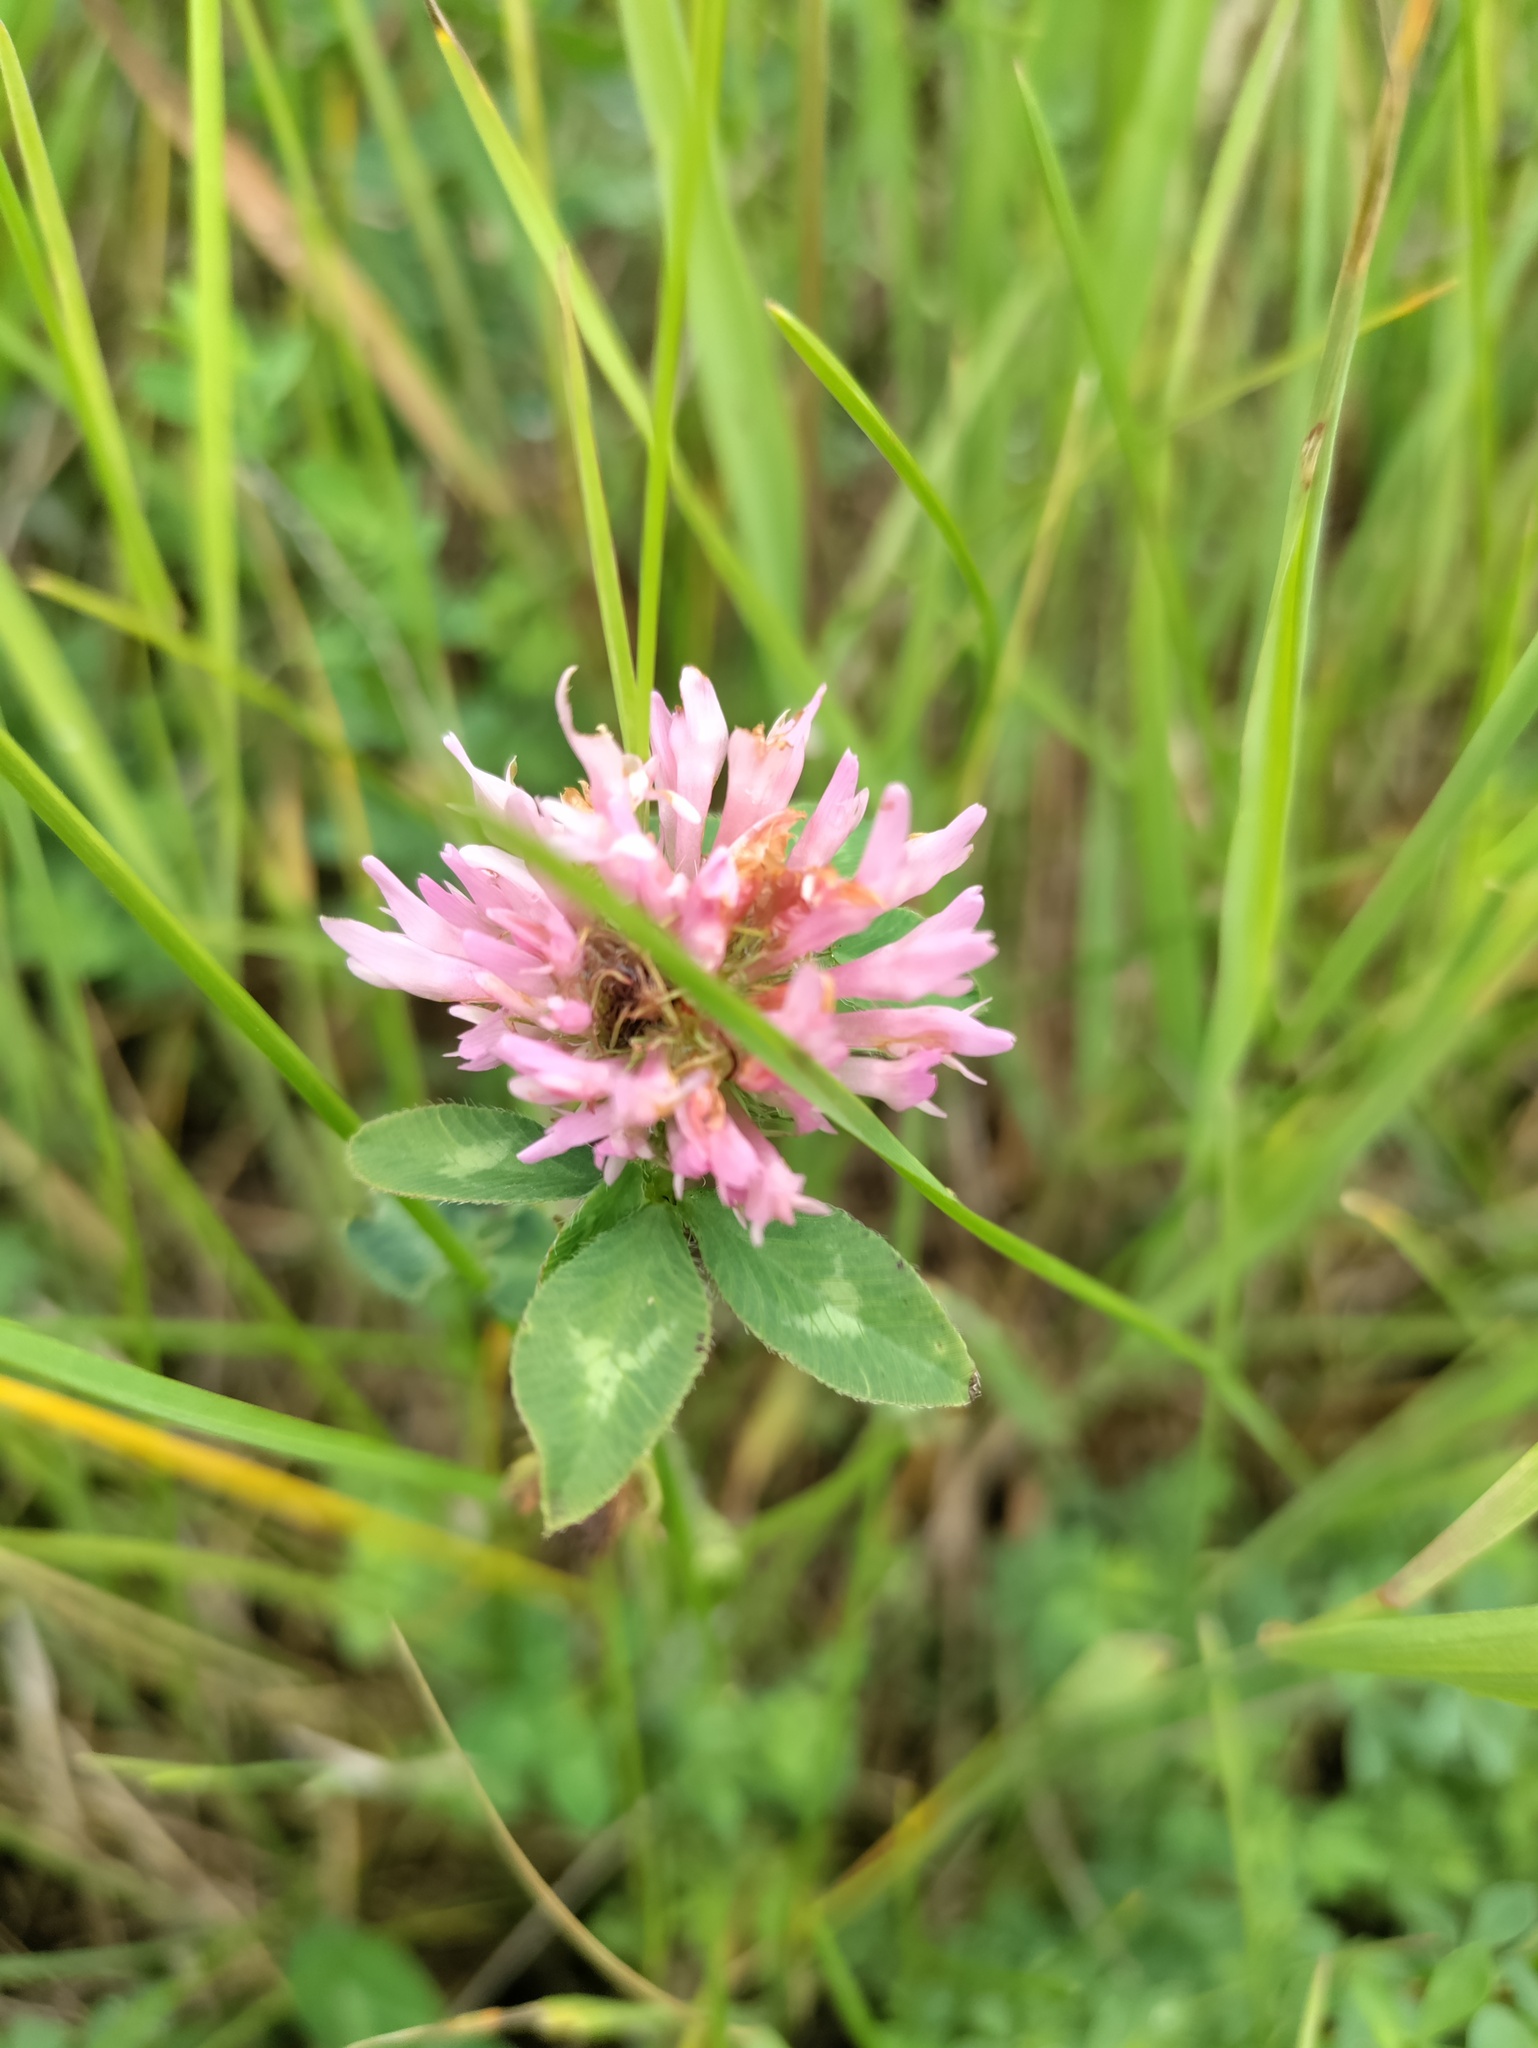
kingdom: Plantae
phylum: Tracheophyta
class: Magnoliopsida
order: Fabales
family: Fabaceae
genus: Trifolium
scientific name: Trifolium pratense
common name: Red clover
